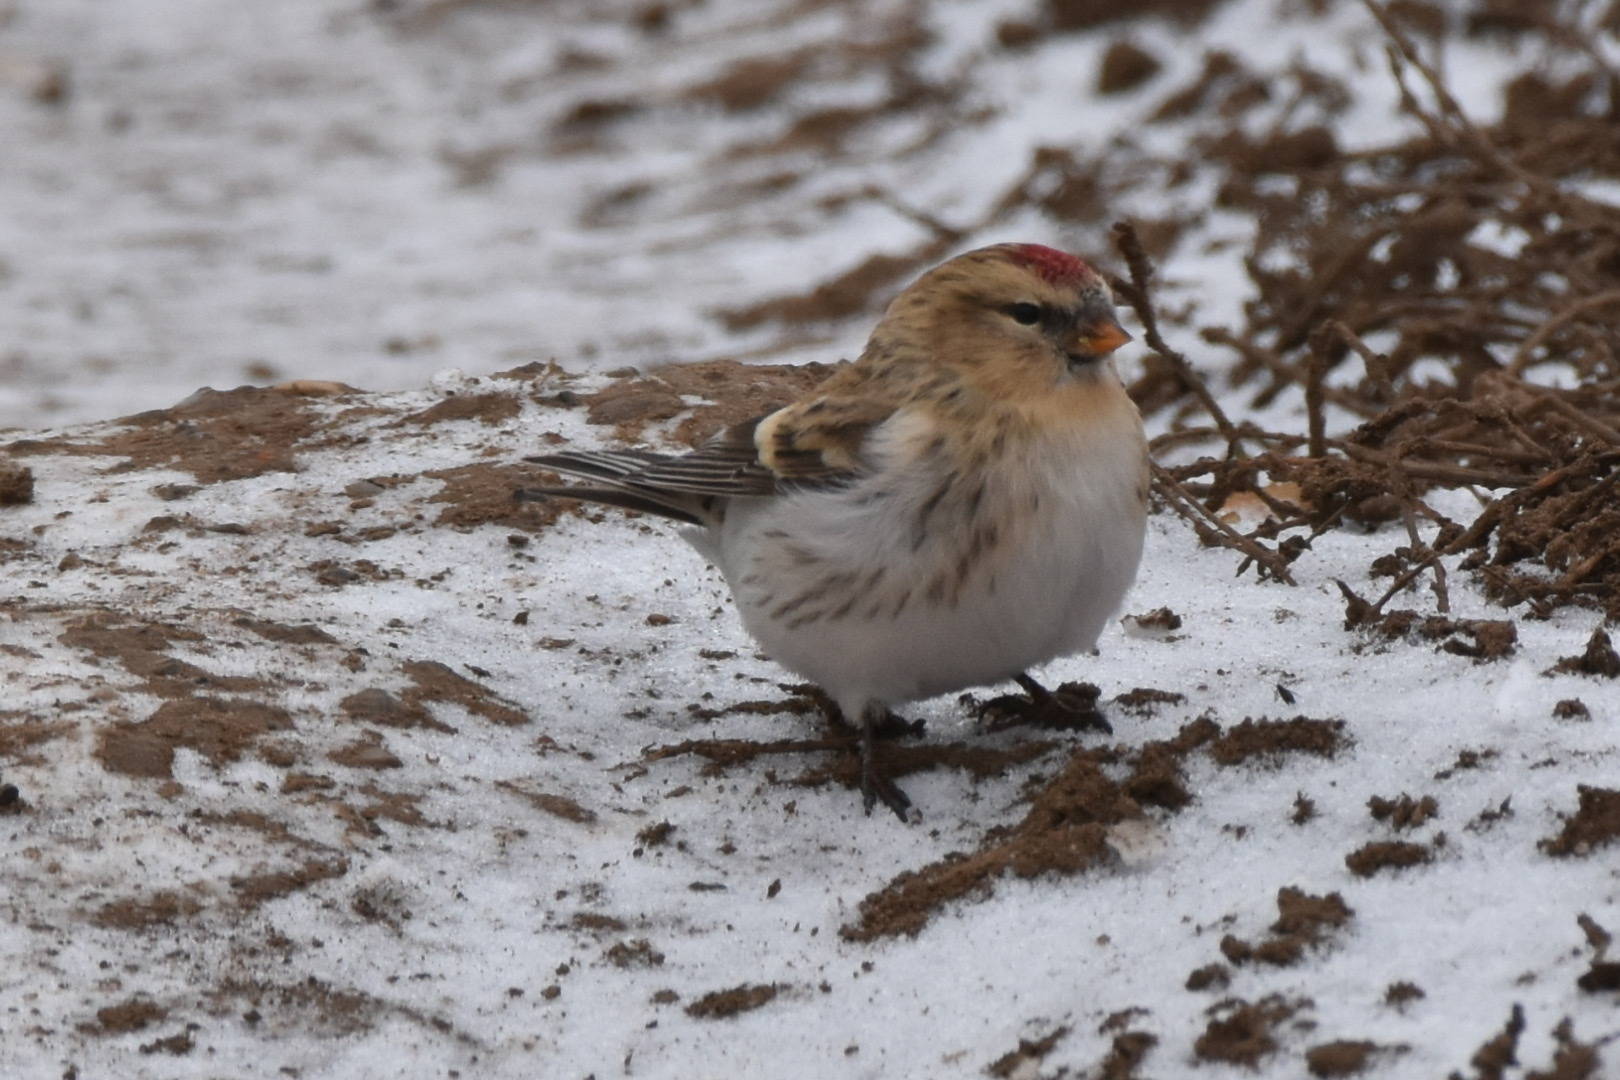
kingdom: Animalia
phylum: Chordata
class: Aves
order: Passeriformes
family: Fringillidae
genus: Acanthis
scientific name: Acanthis hornemanni
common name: Arctic redpoll
